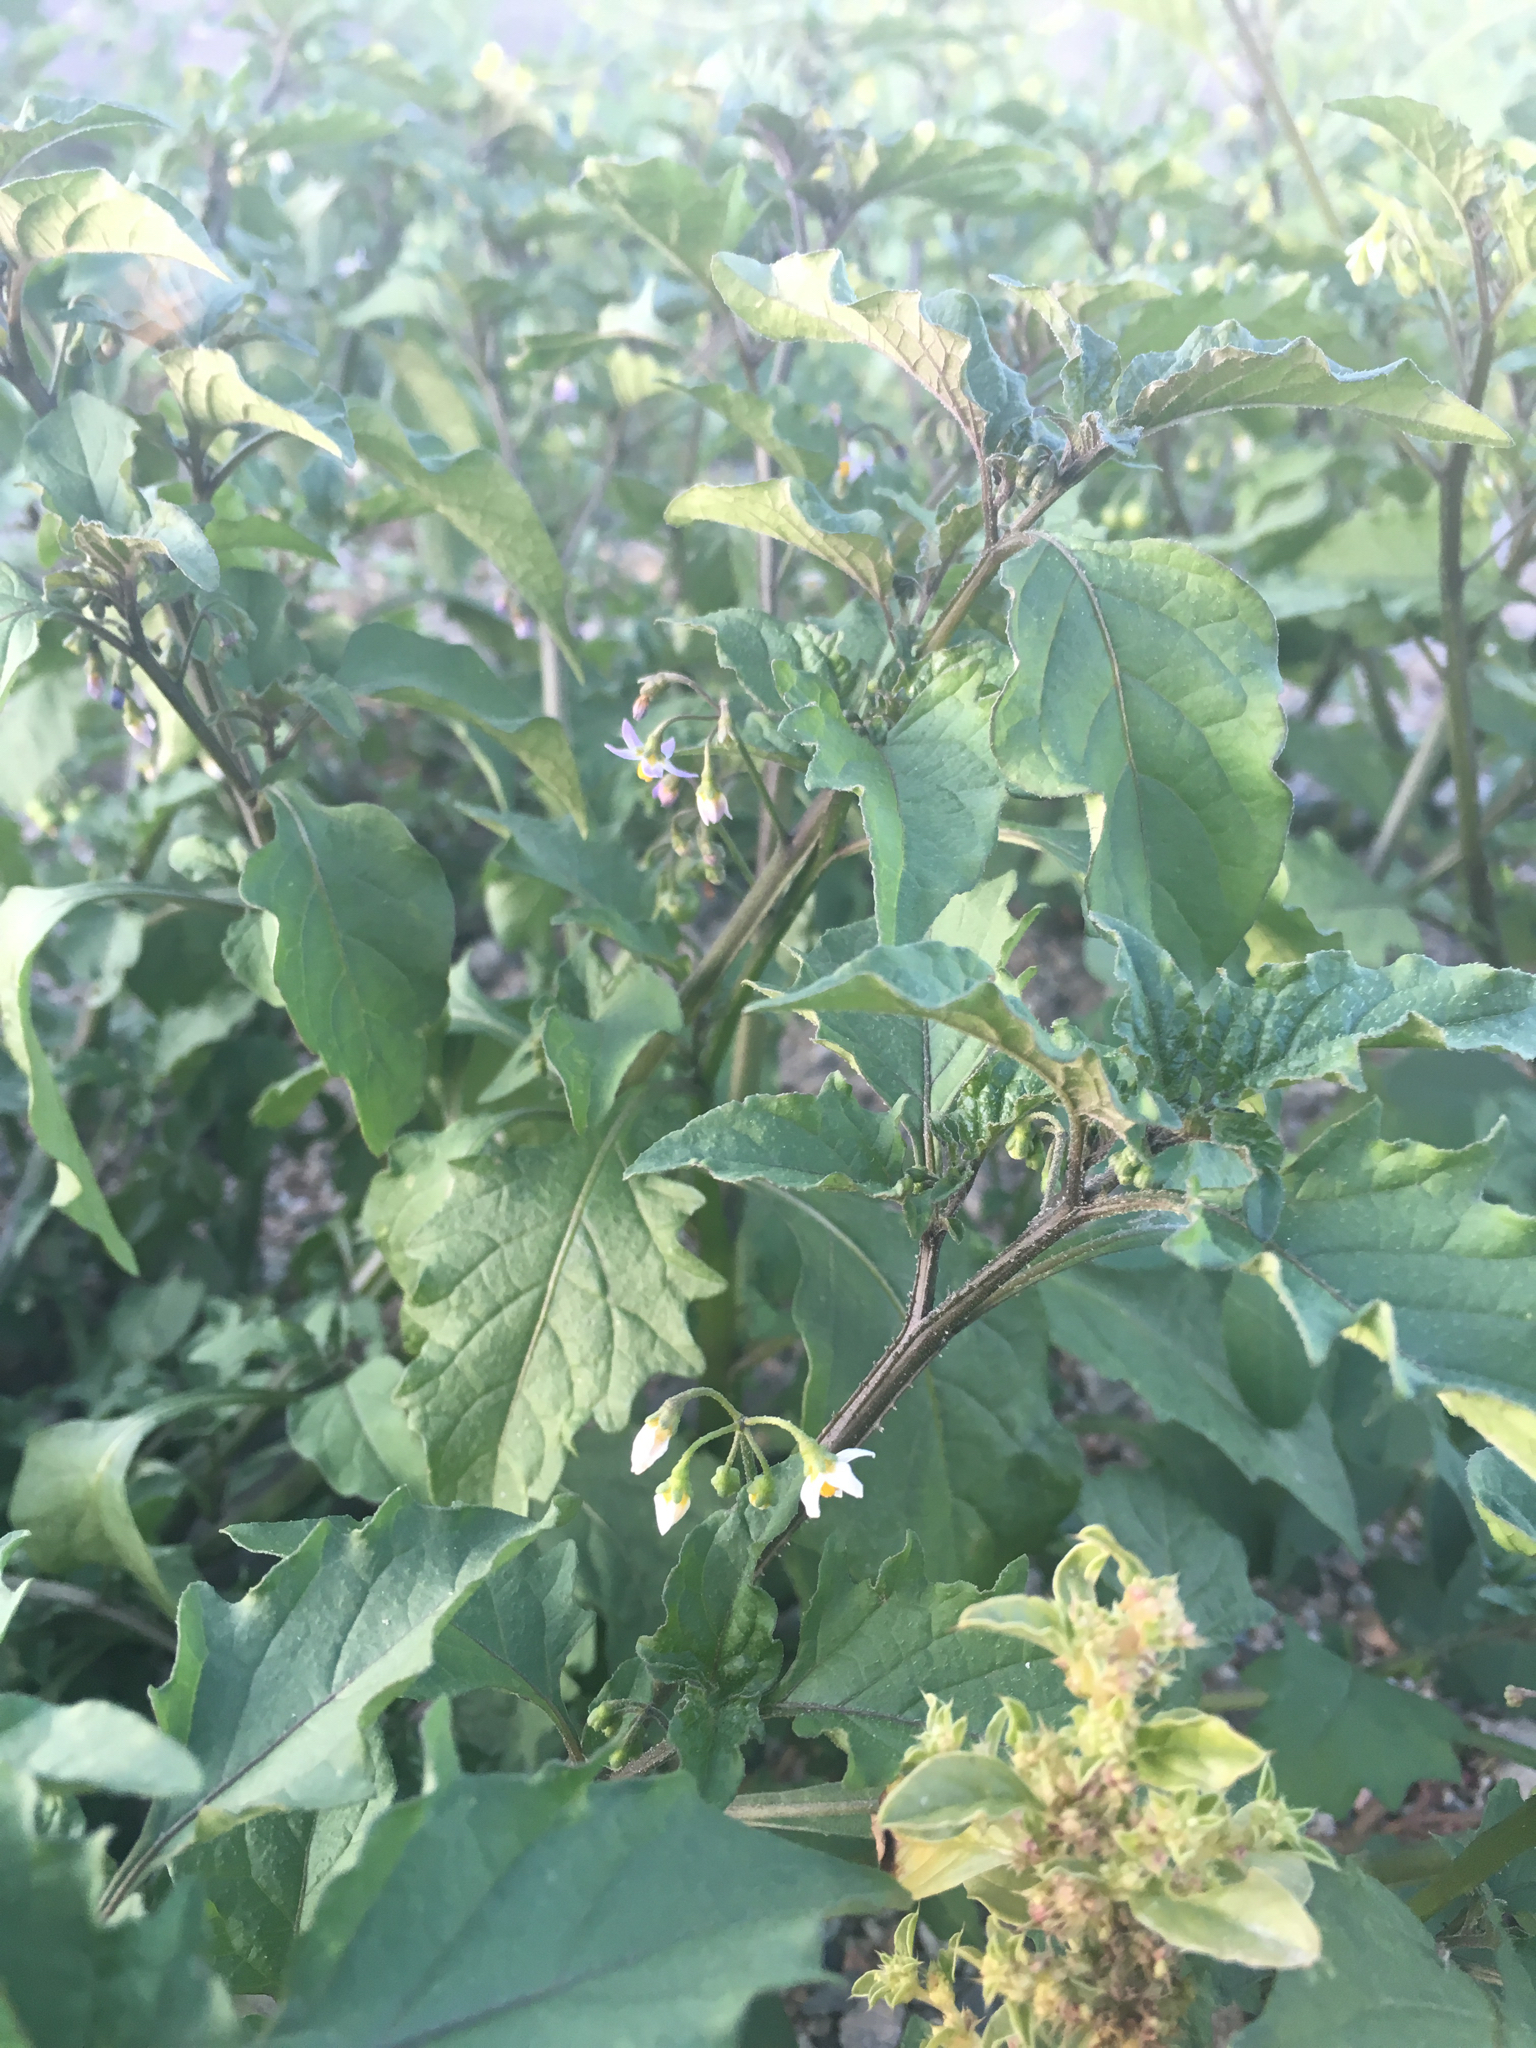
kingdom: Plantae
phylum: Tracheophyta
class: Magnoliopsida
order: Solanales
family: Solanaceae
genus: Solanum
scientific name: Solanum nigrum
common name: Black nightshade
